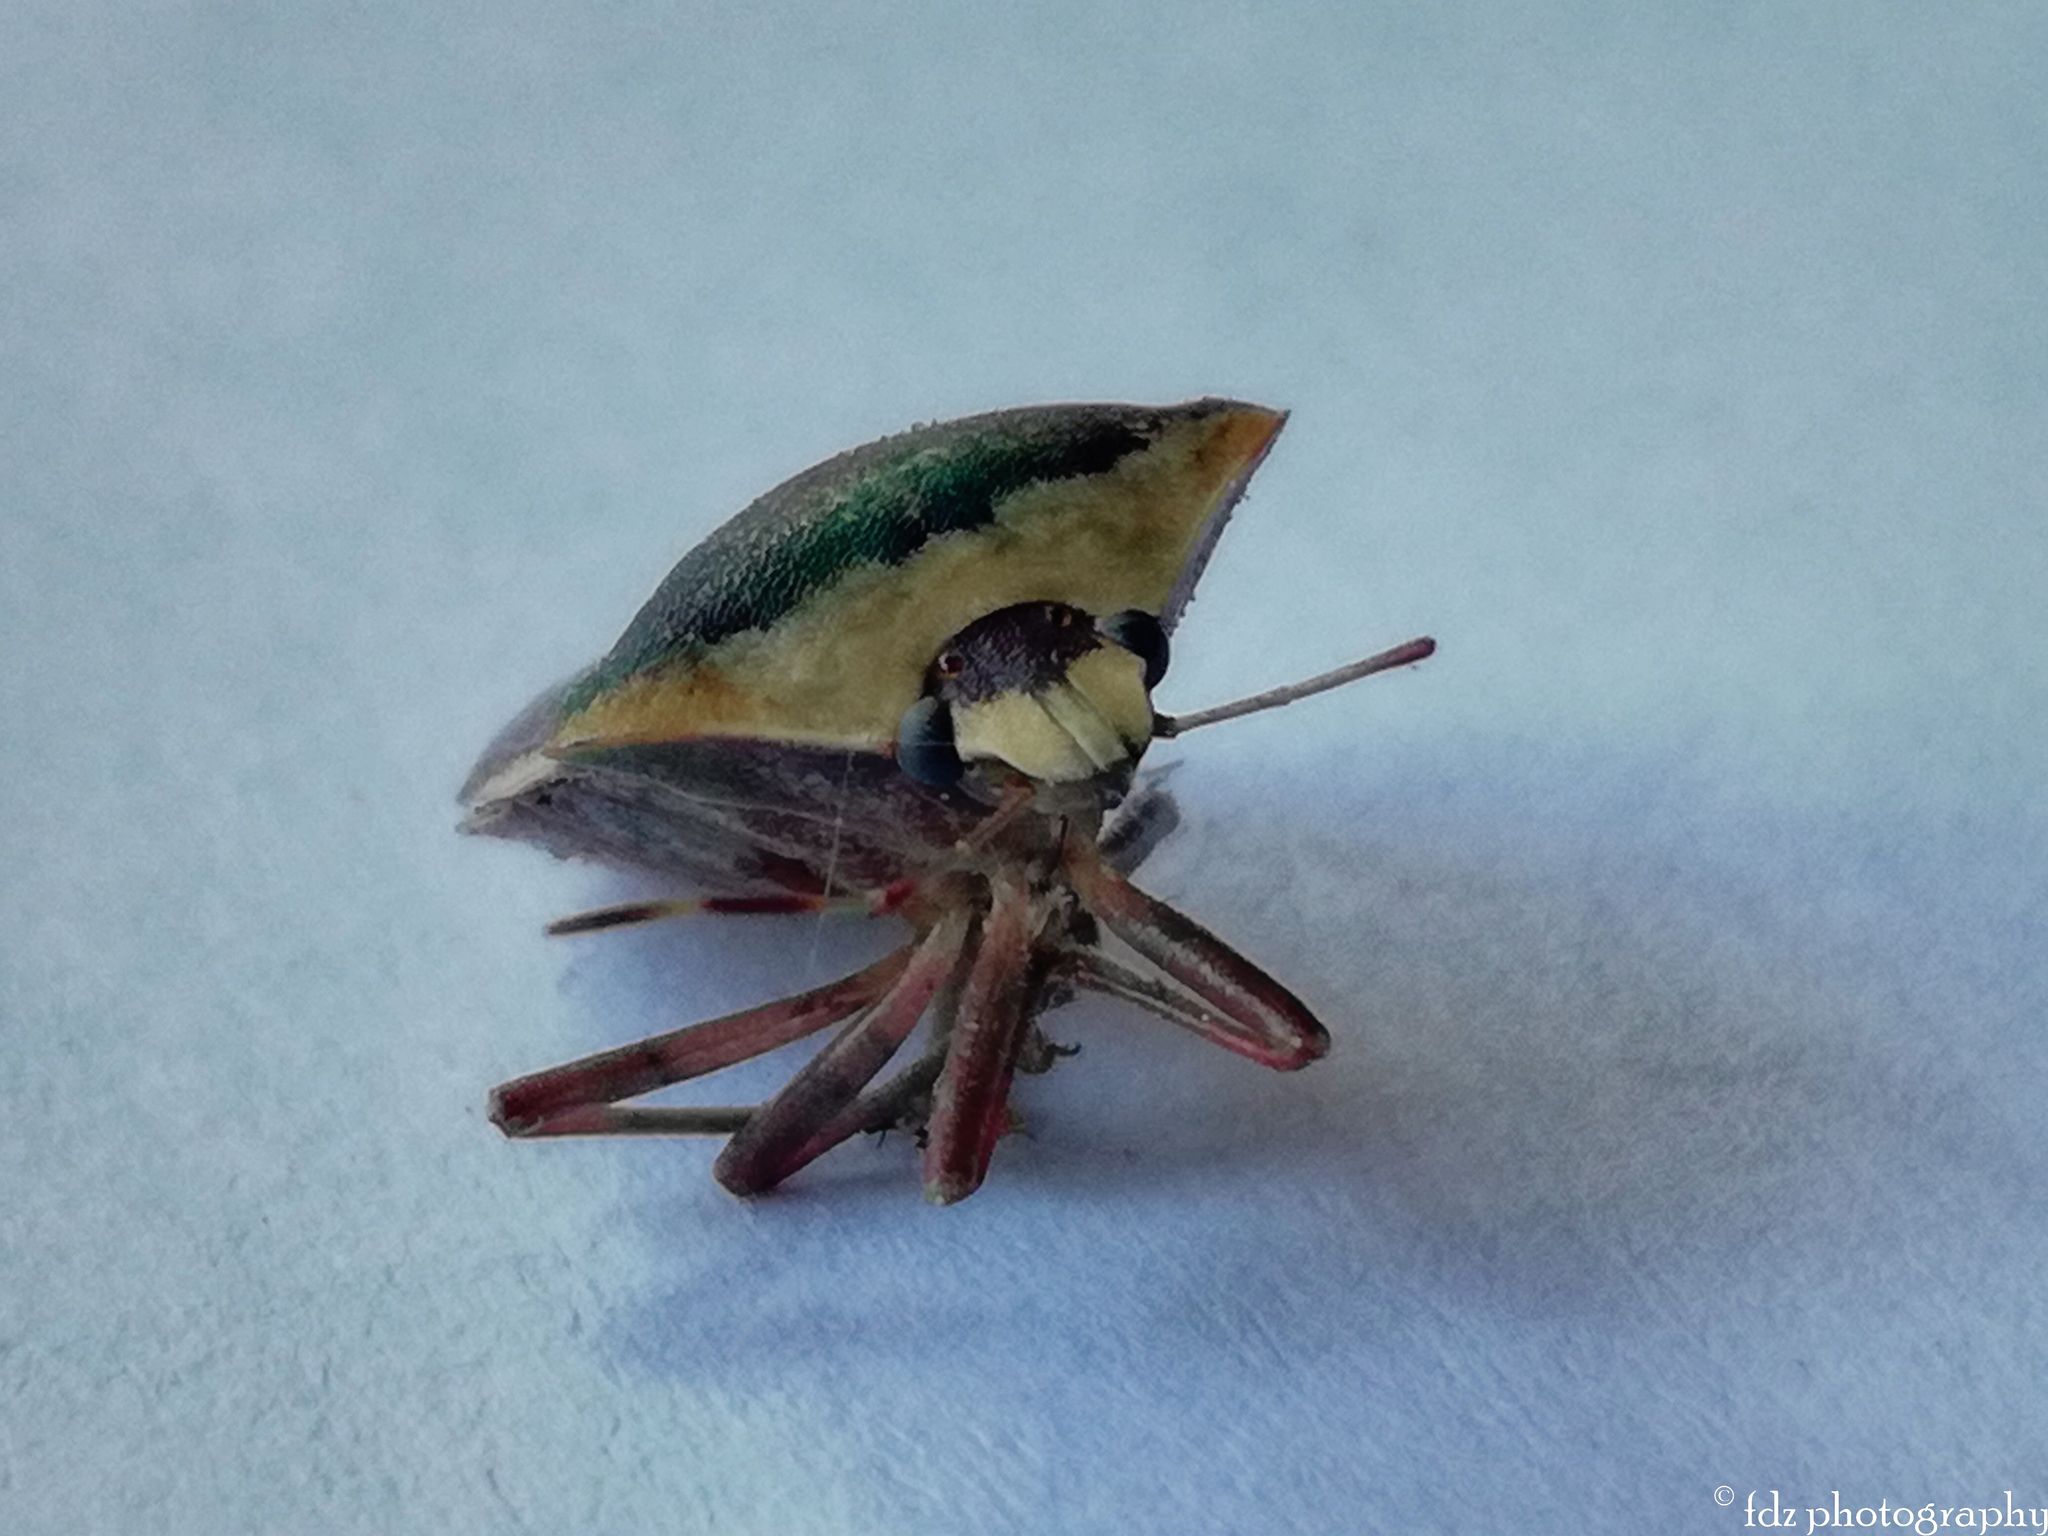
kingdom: Animalia
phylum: Arthropoda
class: Insecta
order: Hemiptera
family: Pentatomidae
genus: Nezara
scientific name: Nezara viridula
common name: Southern green stink bug
